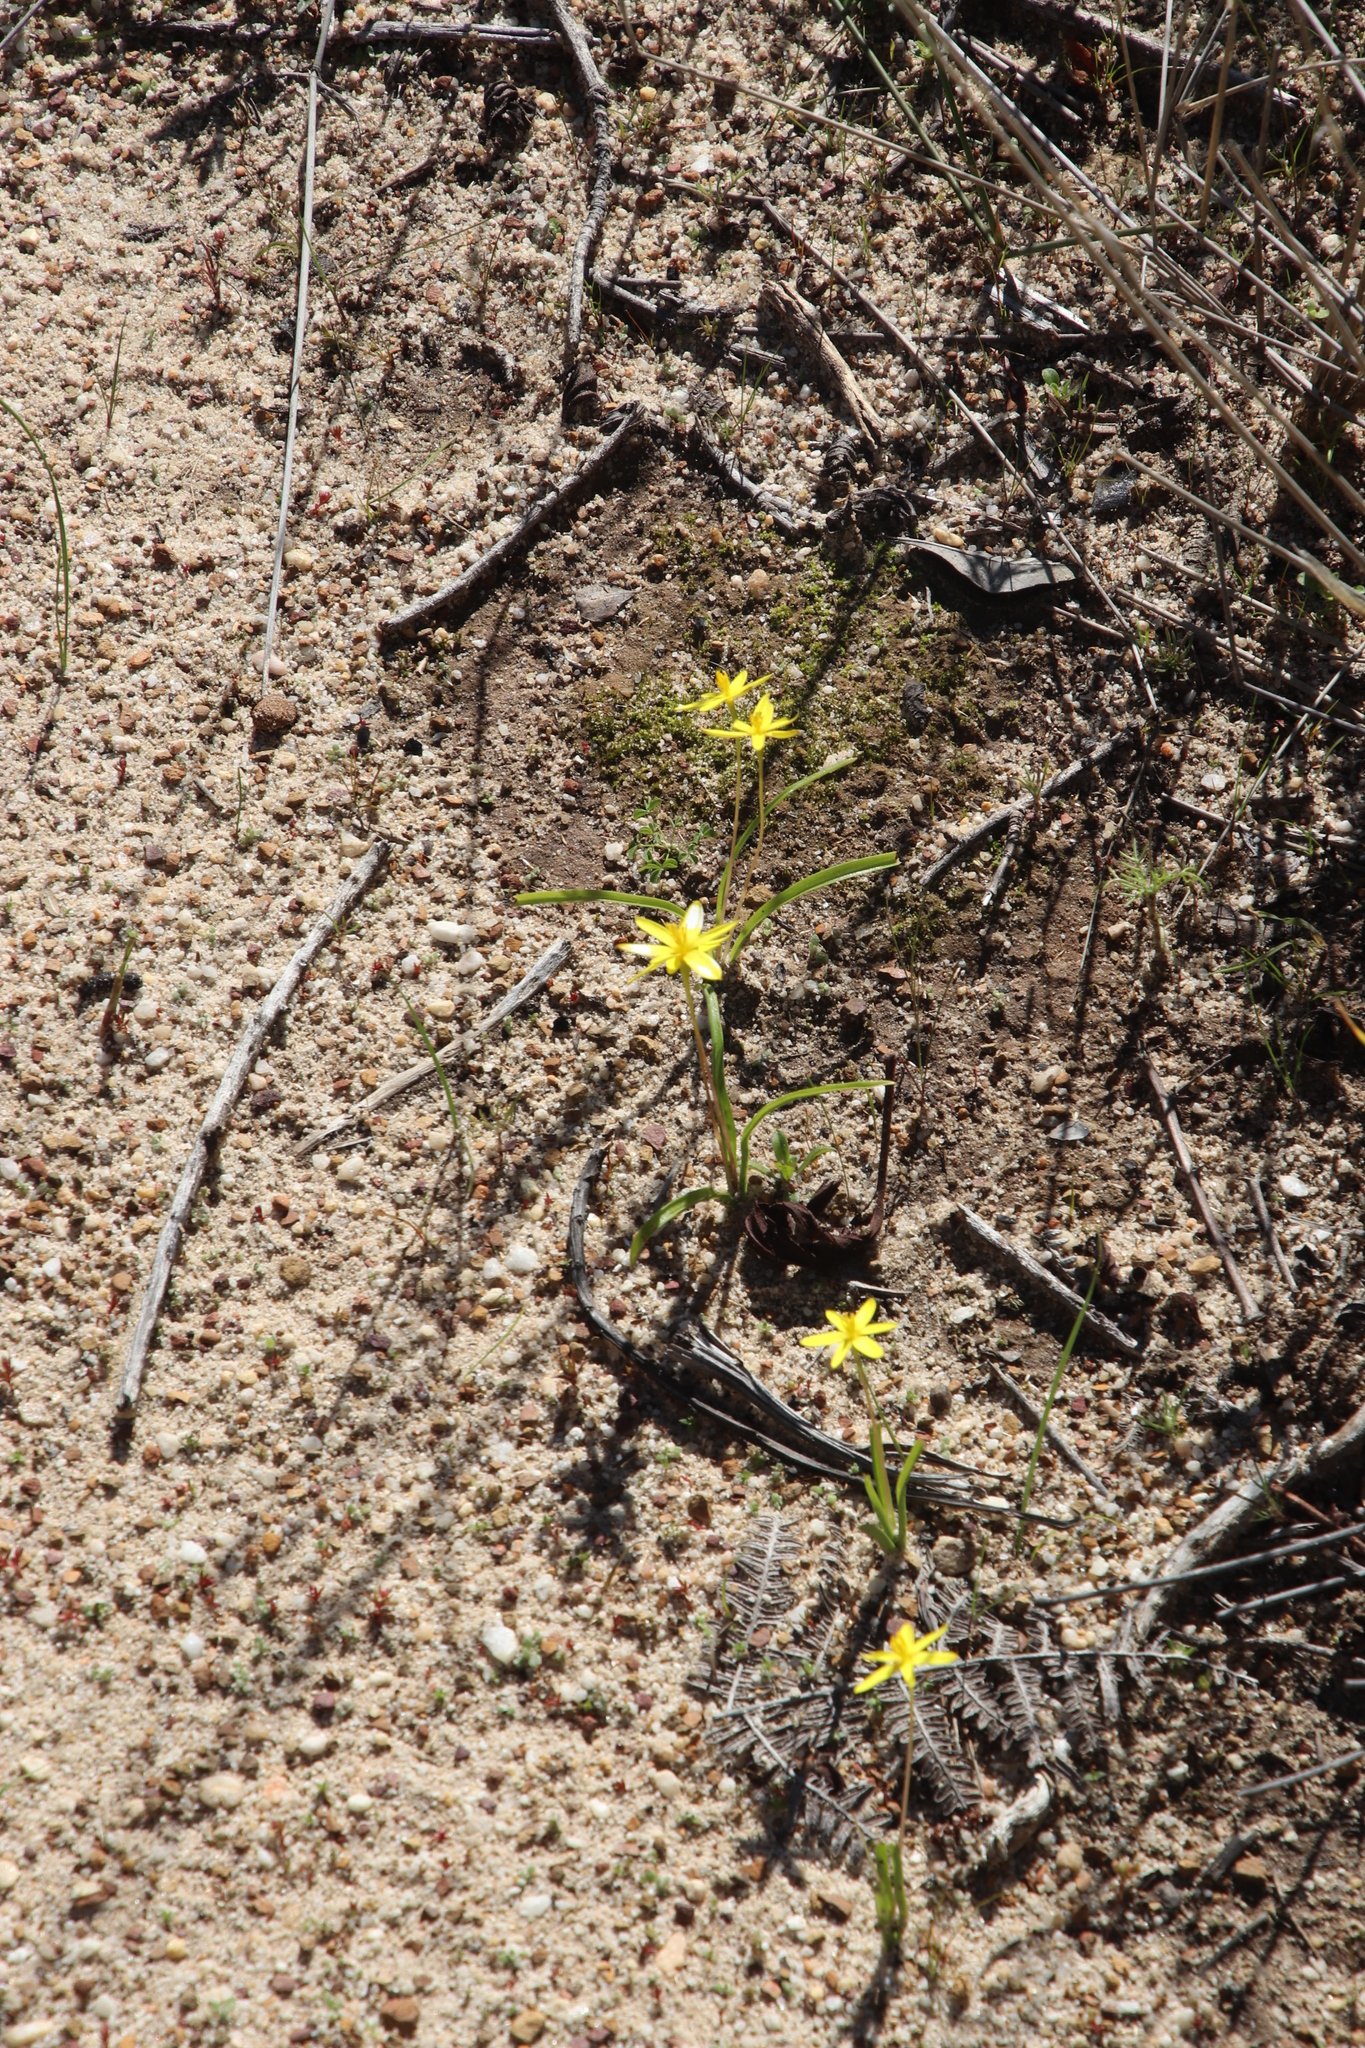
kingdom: Plantae
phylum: Tracheophyta
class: Liliopsida
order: Asparagales
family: Hypoxidaceae
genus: Pauridia
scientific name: Pauridia gracilipes
